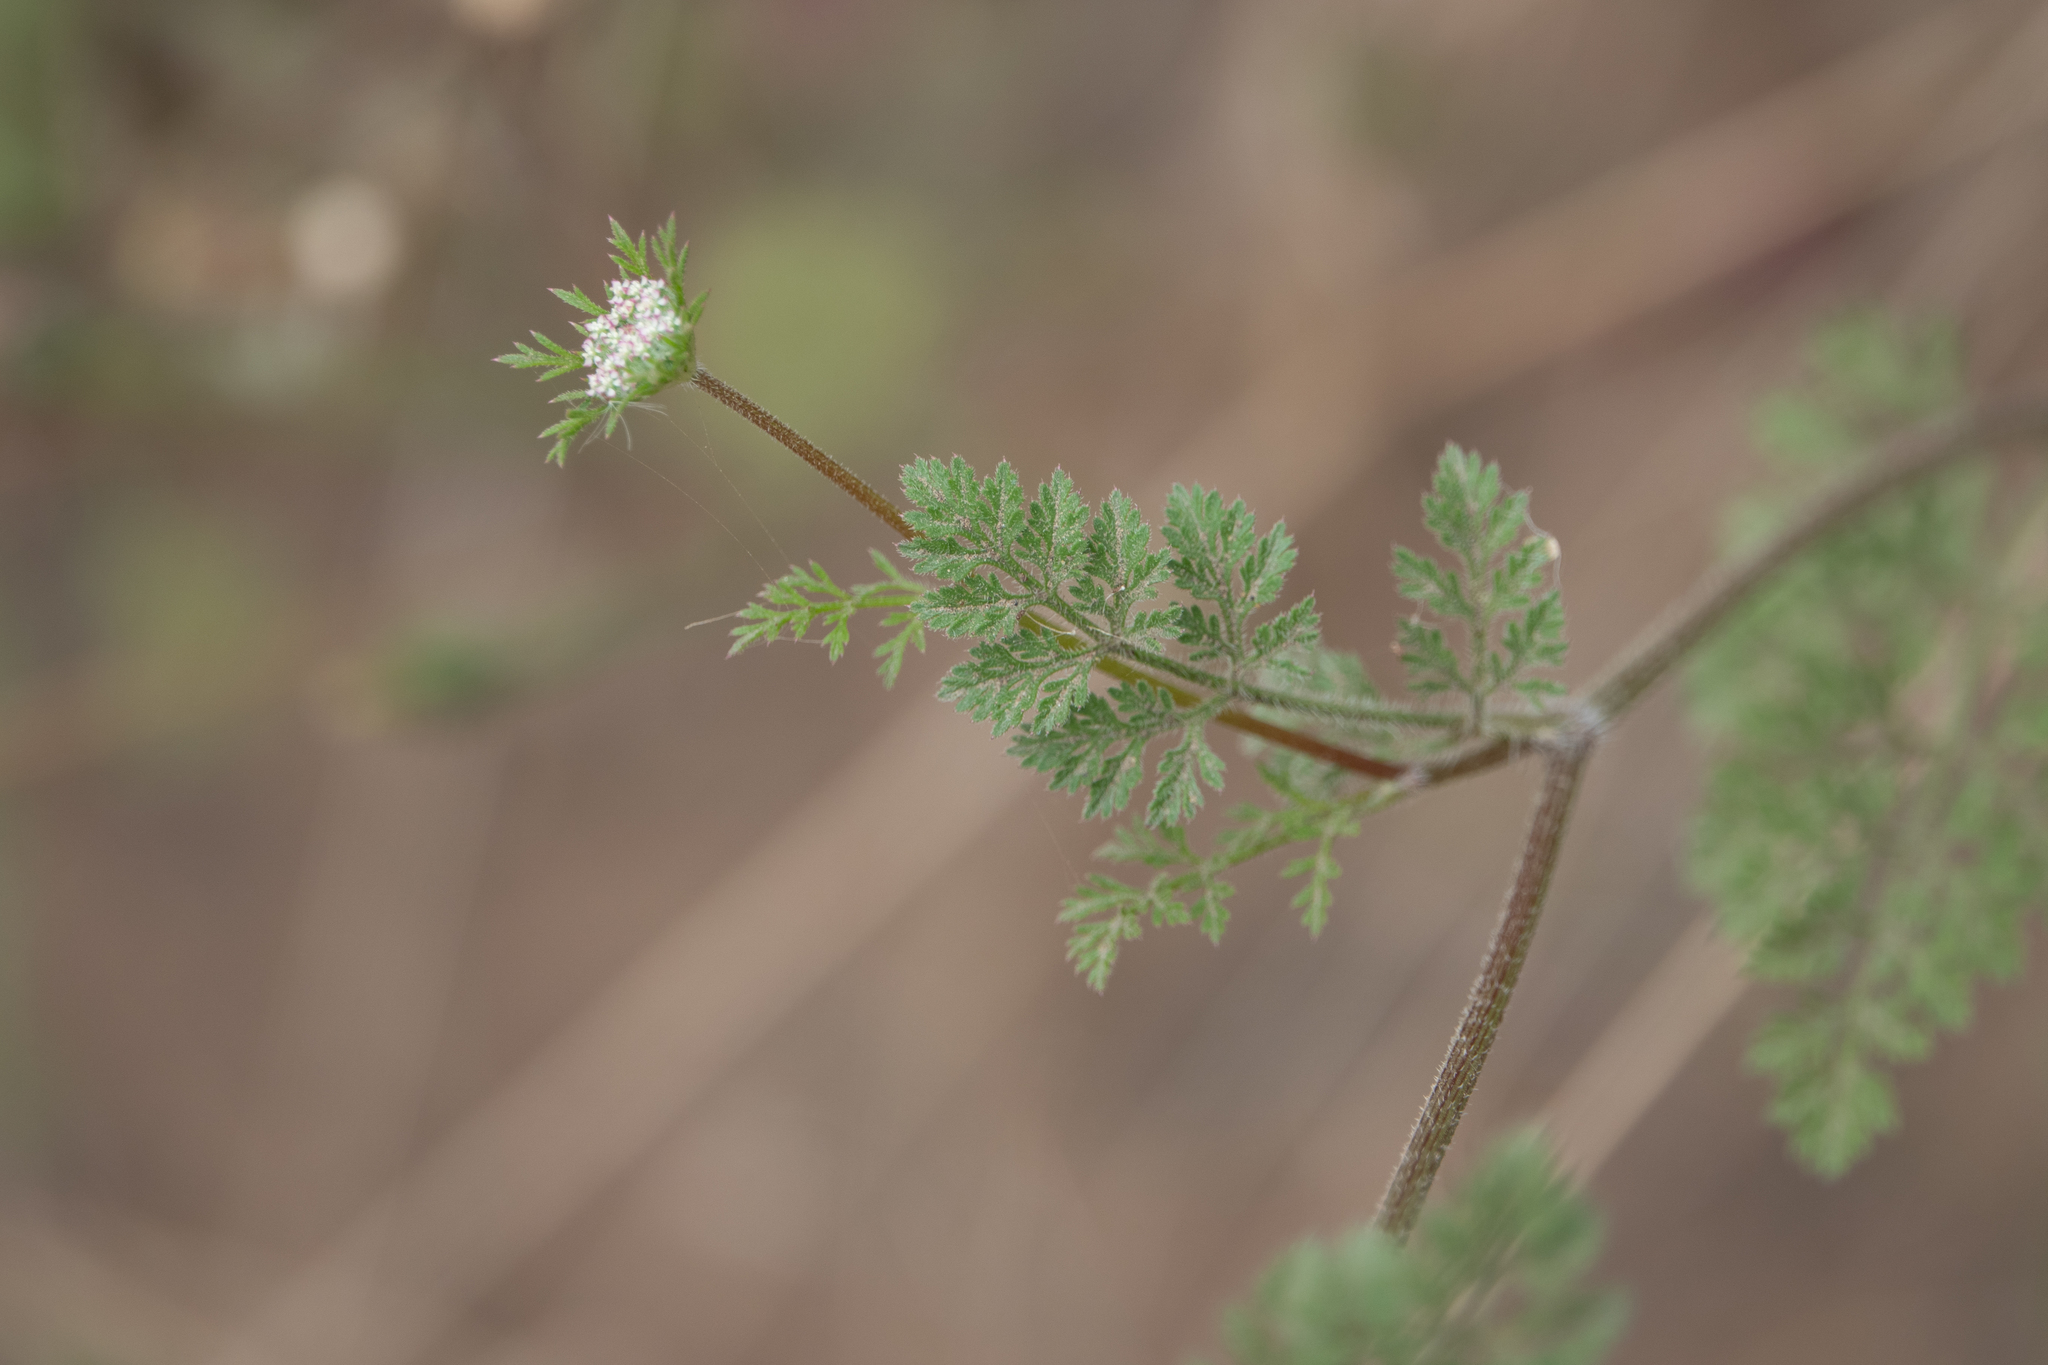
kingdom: Plantae
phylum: Tracheophyta
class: Magnoliopsida
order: Apiales
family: Apiaceae
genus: Daucus
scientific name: Daucus pusillus
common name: Southwest wild carrot
